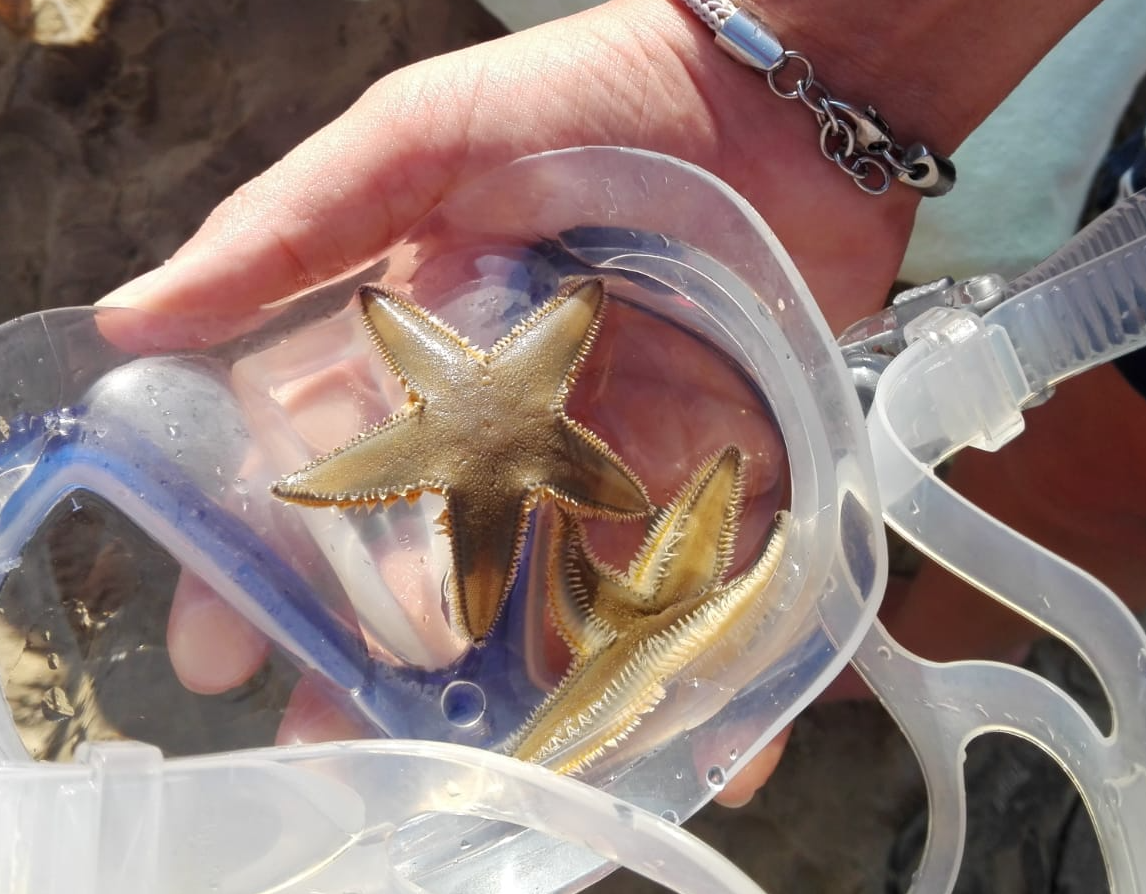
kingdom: Animalia
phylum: Echinodermata
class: Asteroidea
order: Paxillosida
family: Astropectinidae
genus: Astropecten
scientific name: Astropecten jonstoni
